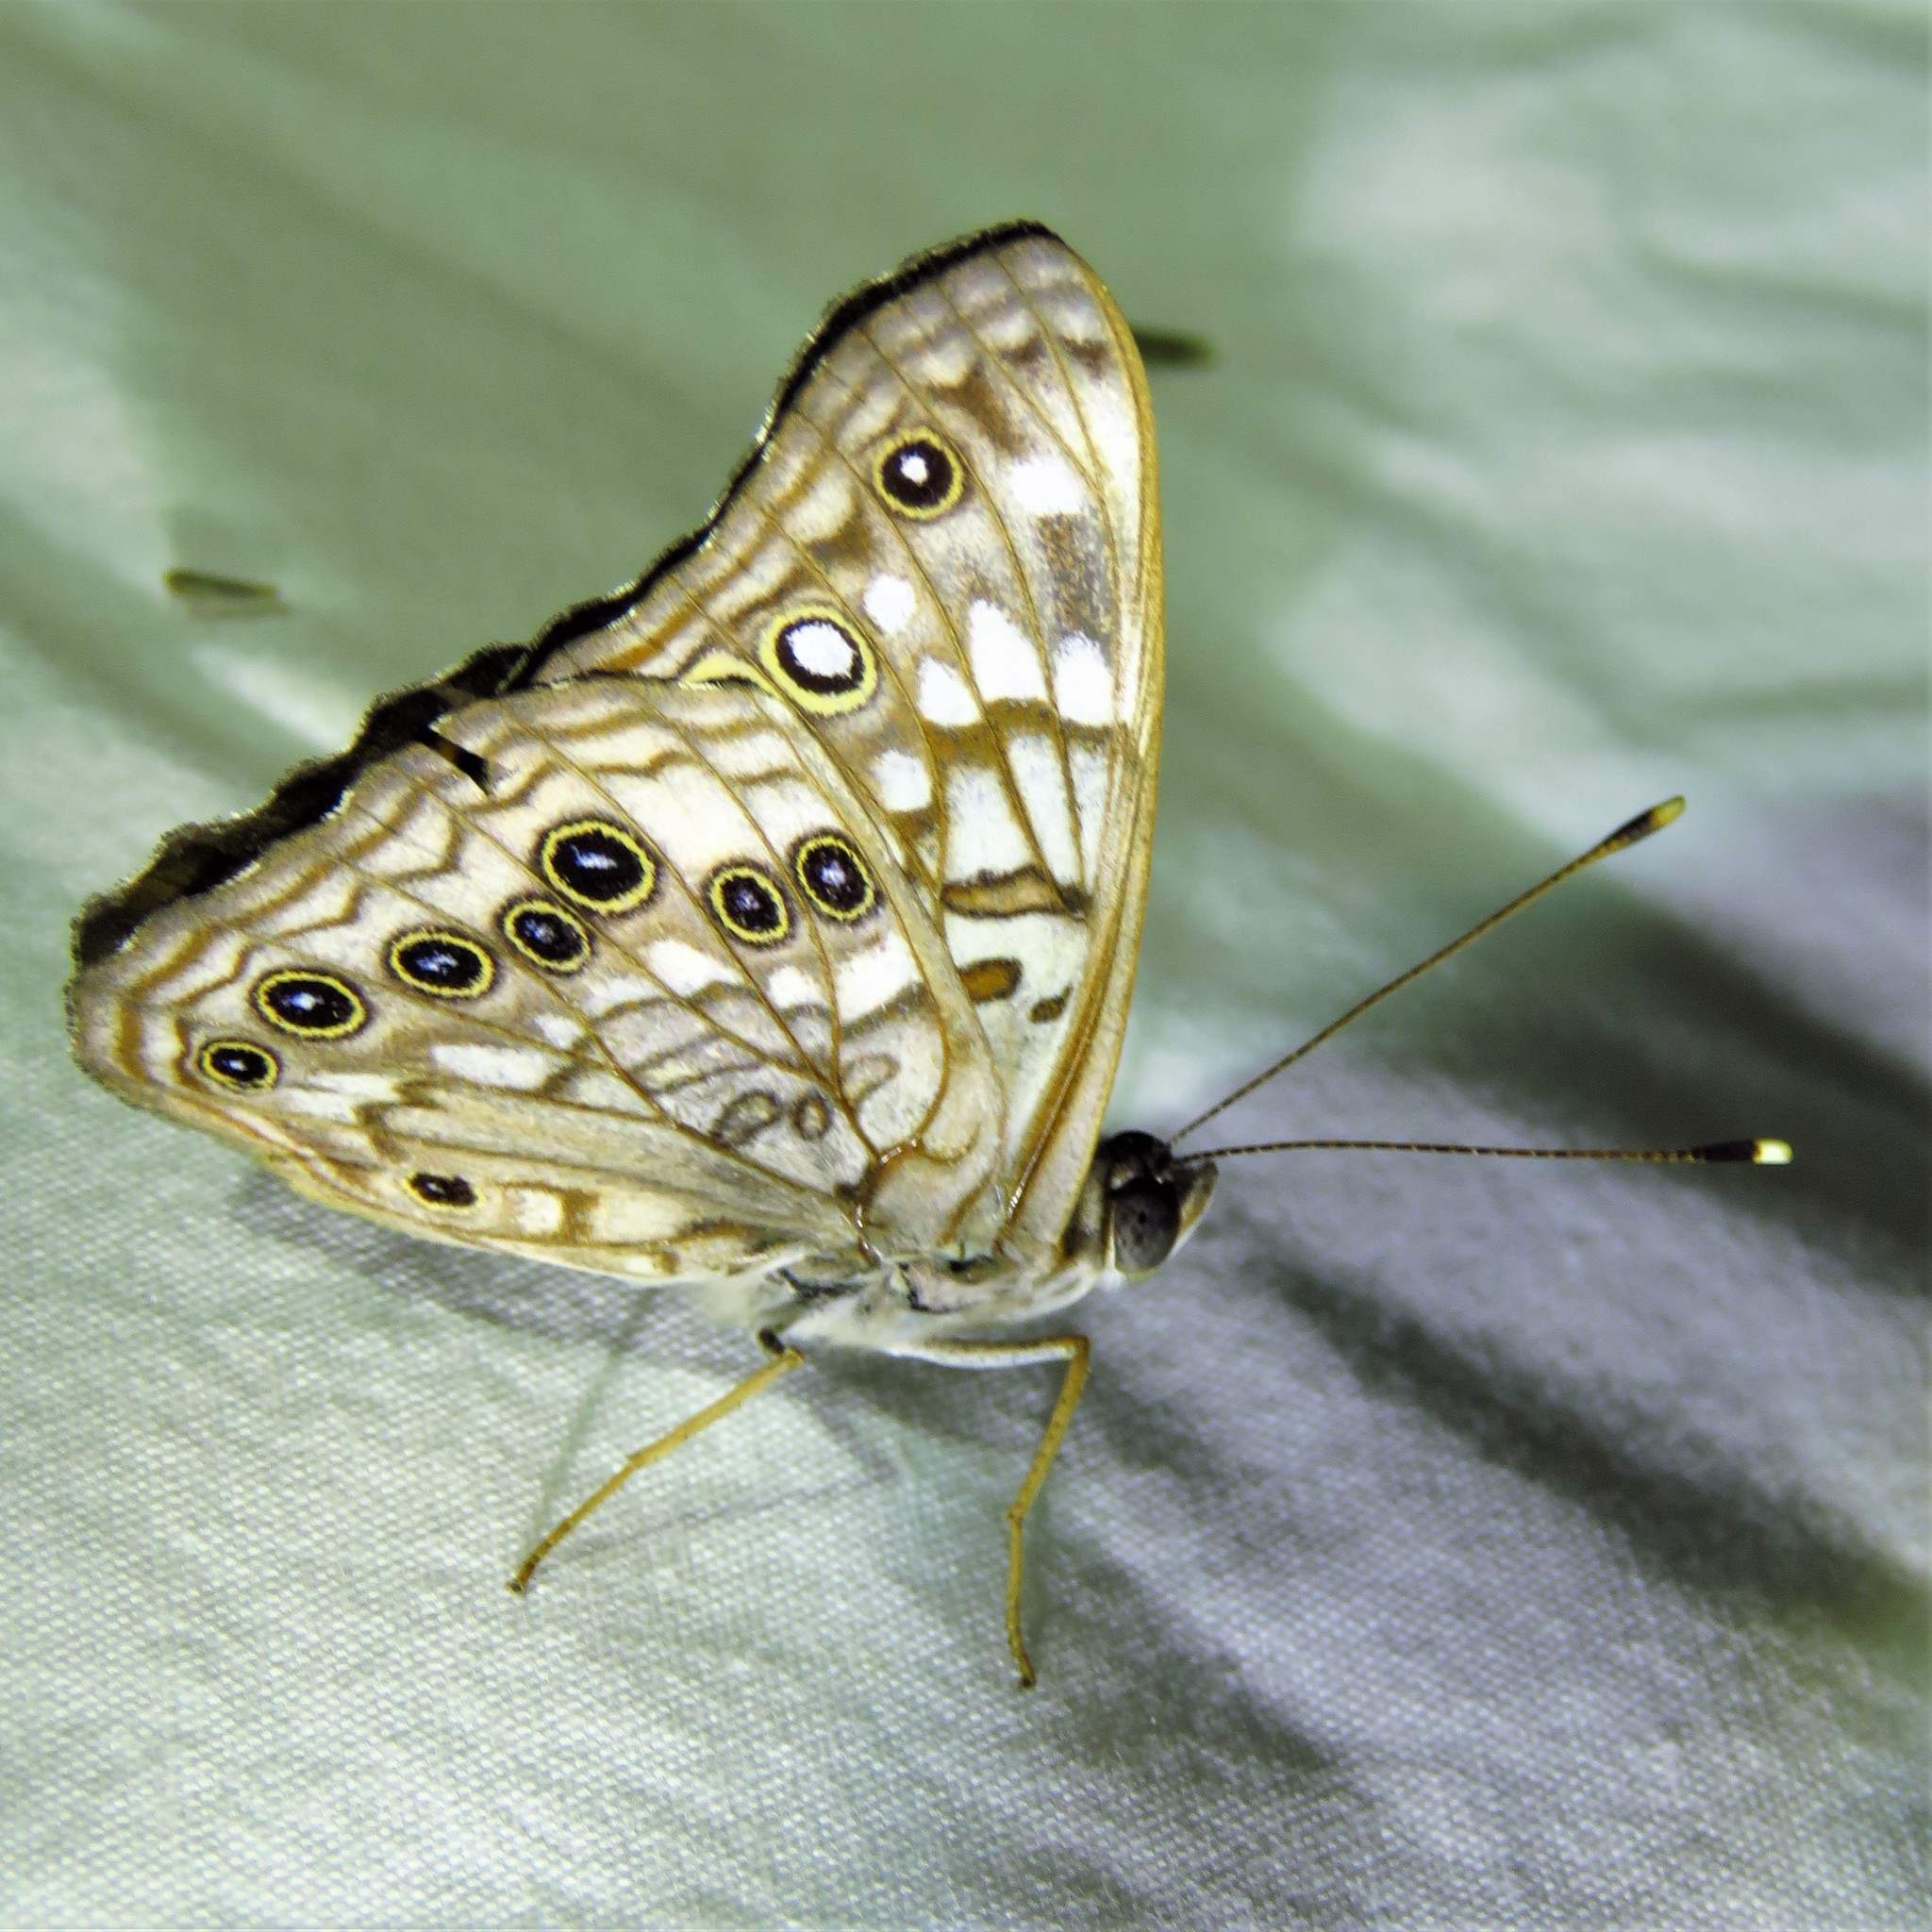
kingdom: Animalia
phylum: Arthropoda
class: Insecta
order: Lepidoptera
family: Nymphalidae
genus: Asterocampa
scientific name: Asterocampa celtis
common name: Hackberry emperor
